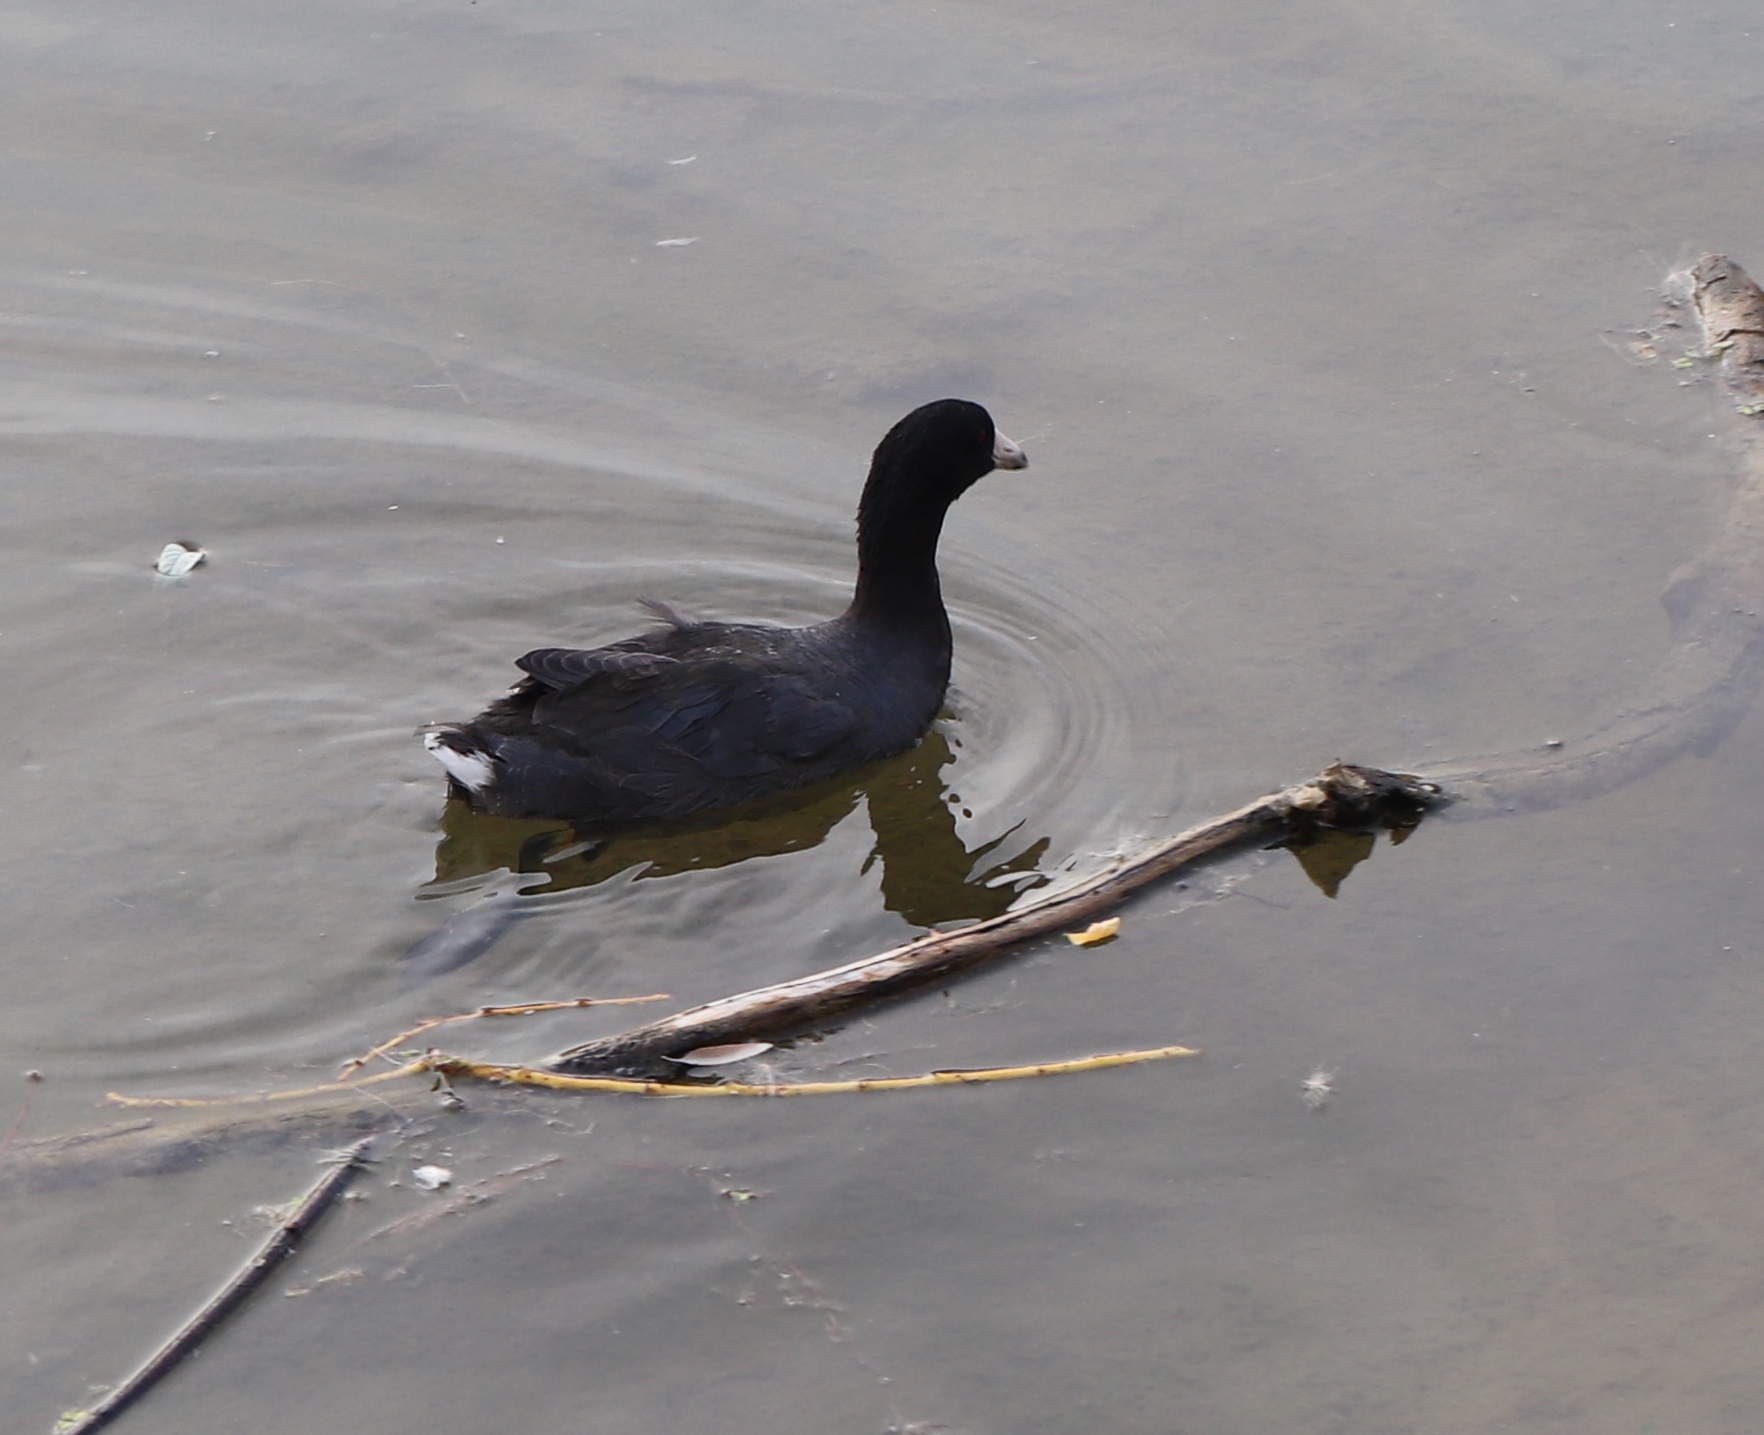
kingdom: Animalia
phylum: Chordata
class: Aves
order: Gruiformes
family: Rallidae
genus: Fulica
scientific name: Fulica americana
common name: American coot
